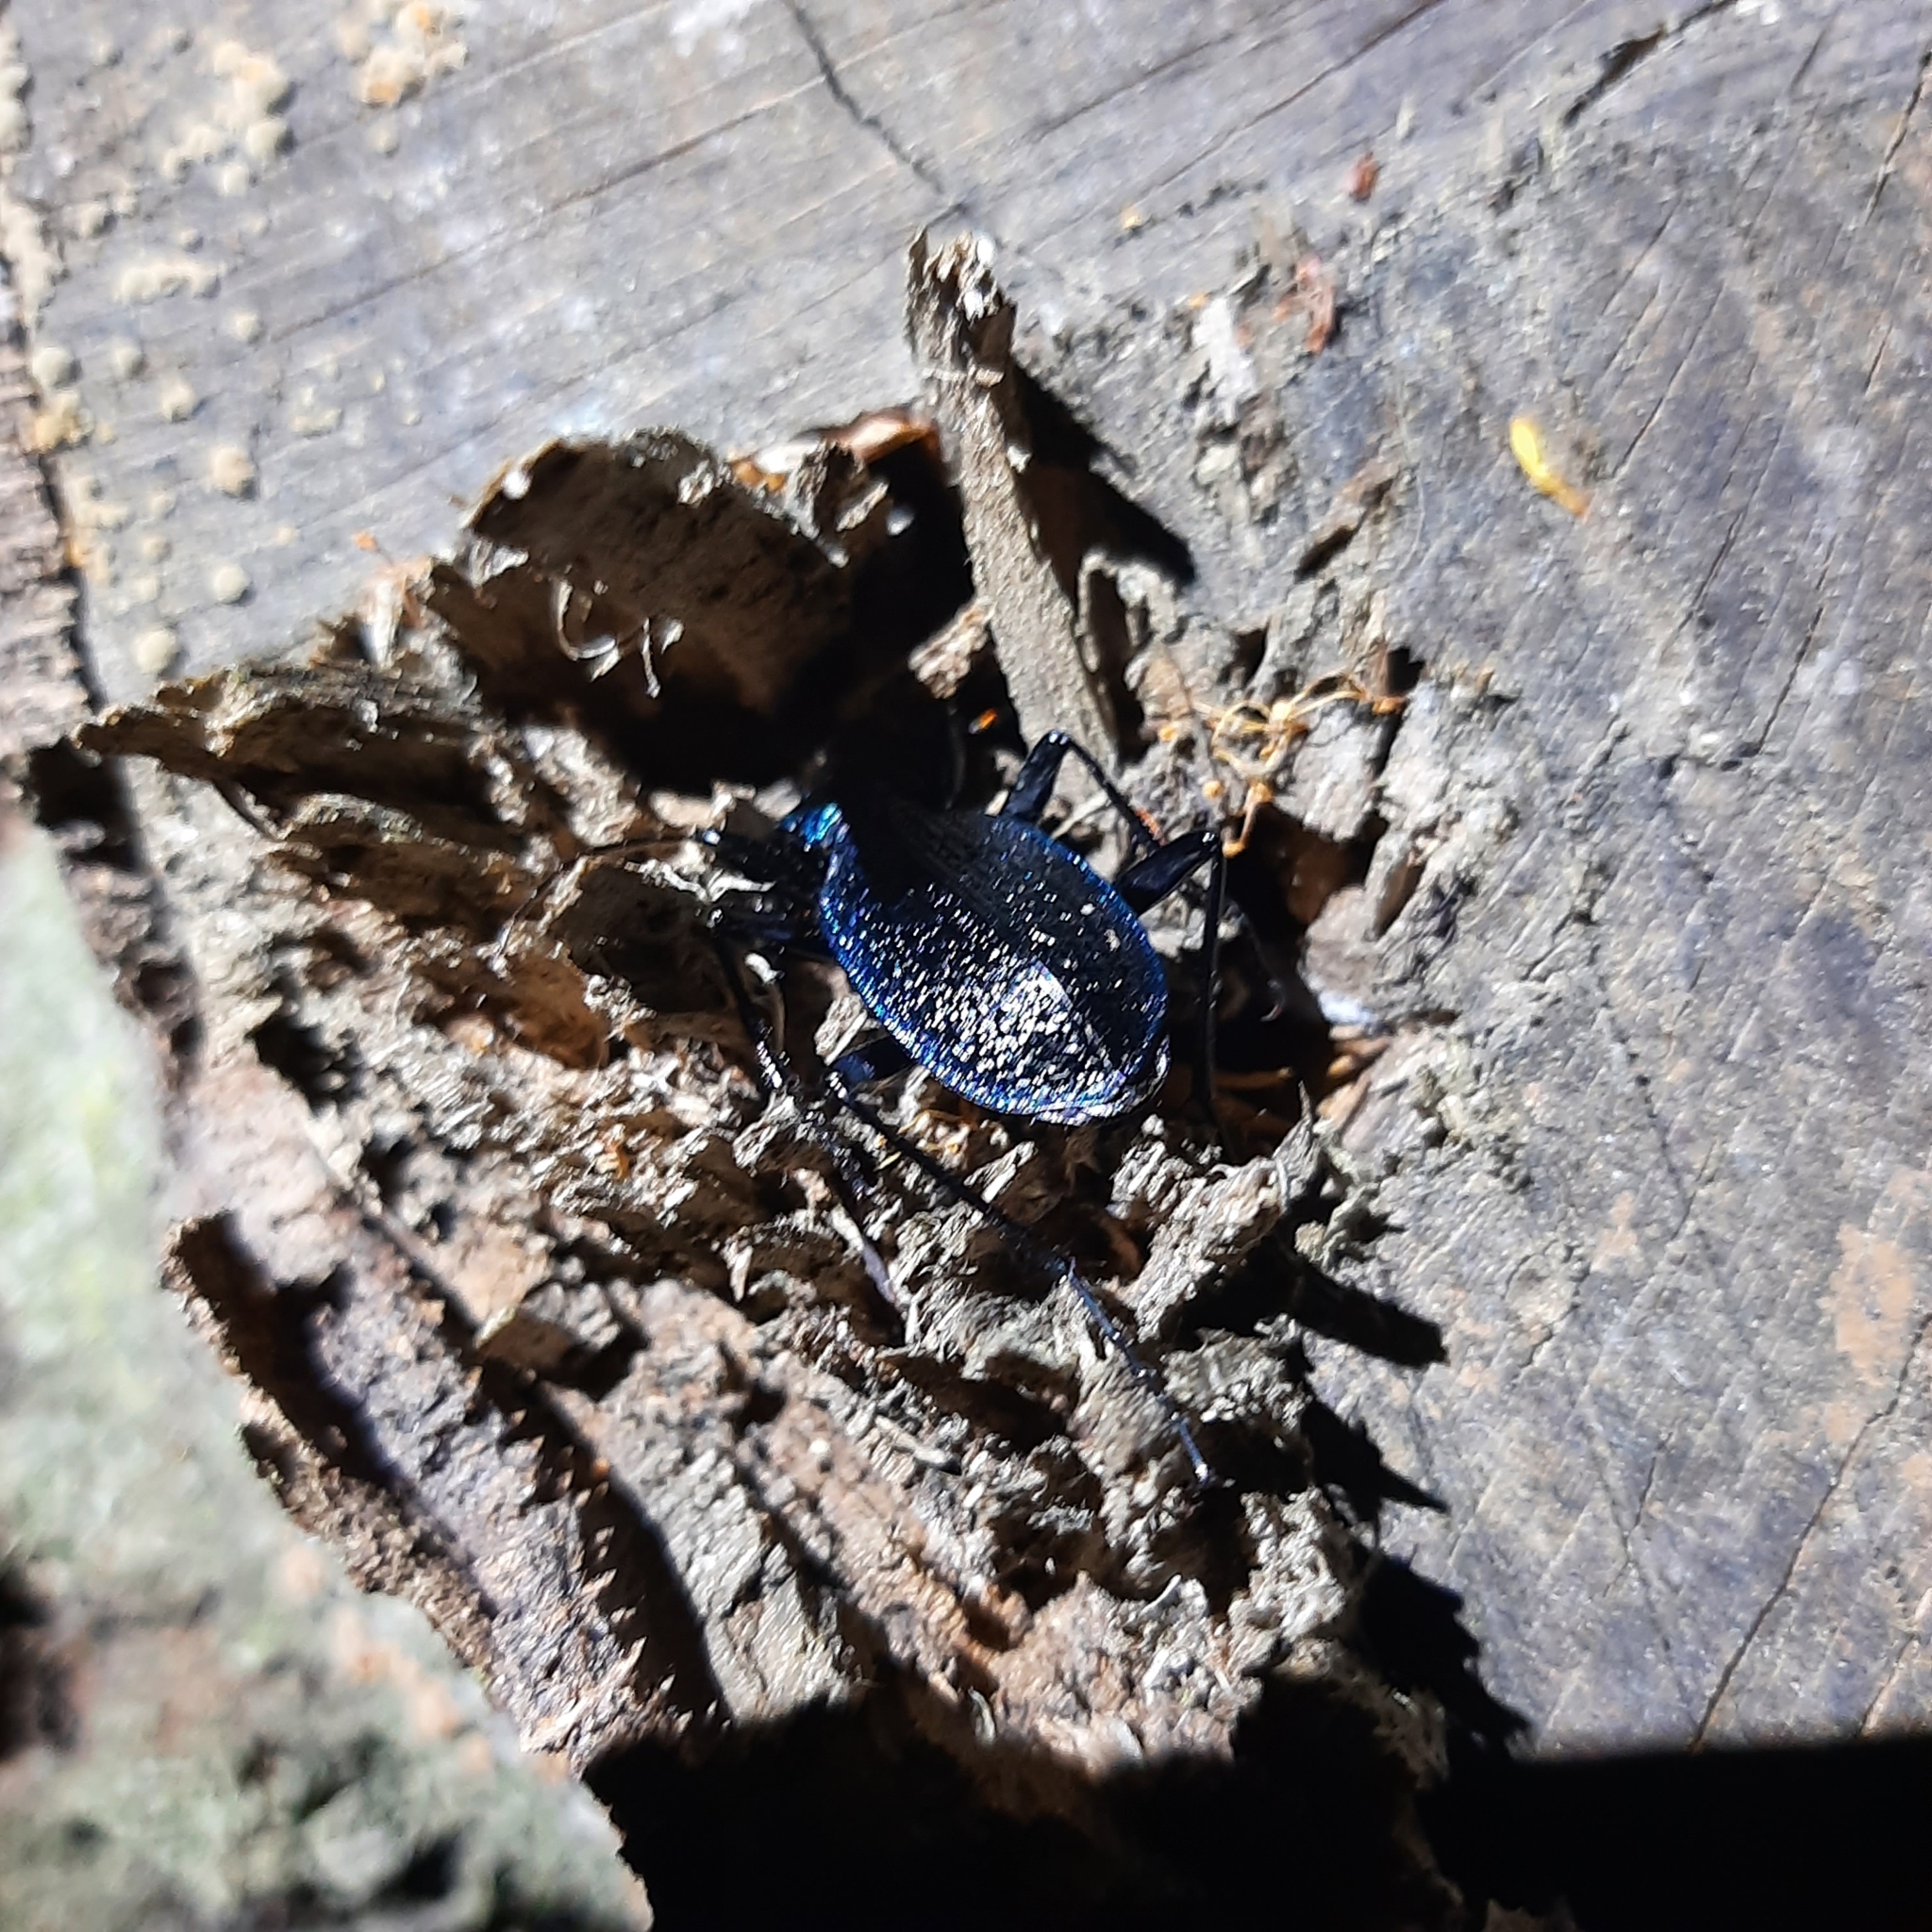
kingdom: Animalia
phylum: Arthropoda
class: Insecta
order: Coleoptera
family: Carabidae
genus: Carabus
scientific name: Carabus intricatus
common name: Blue ground beetle
